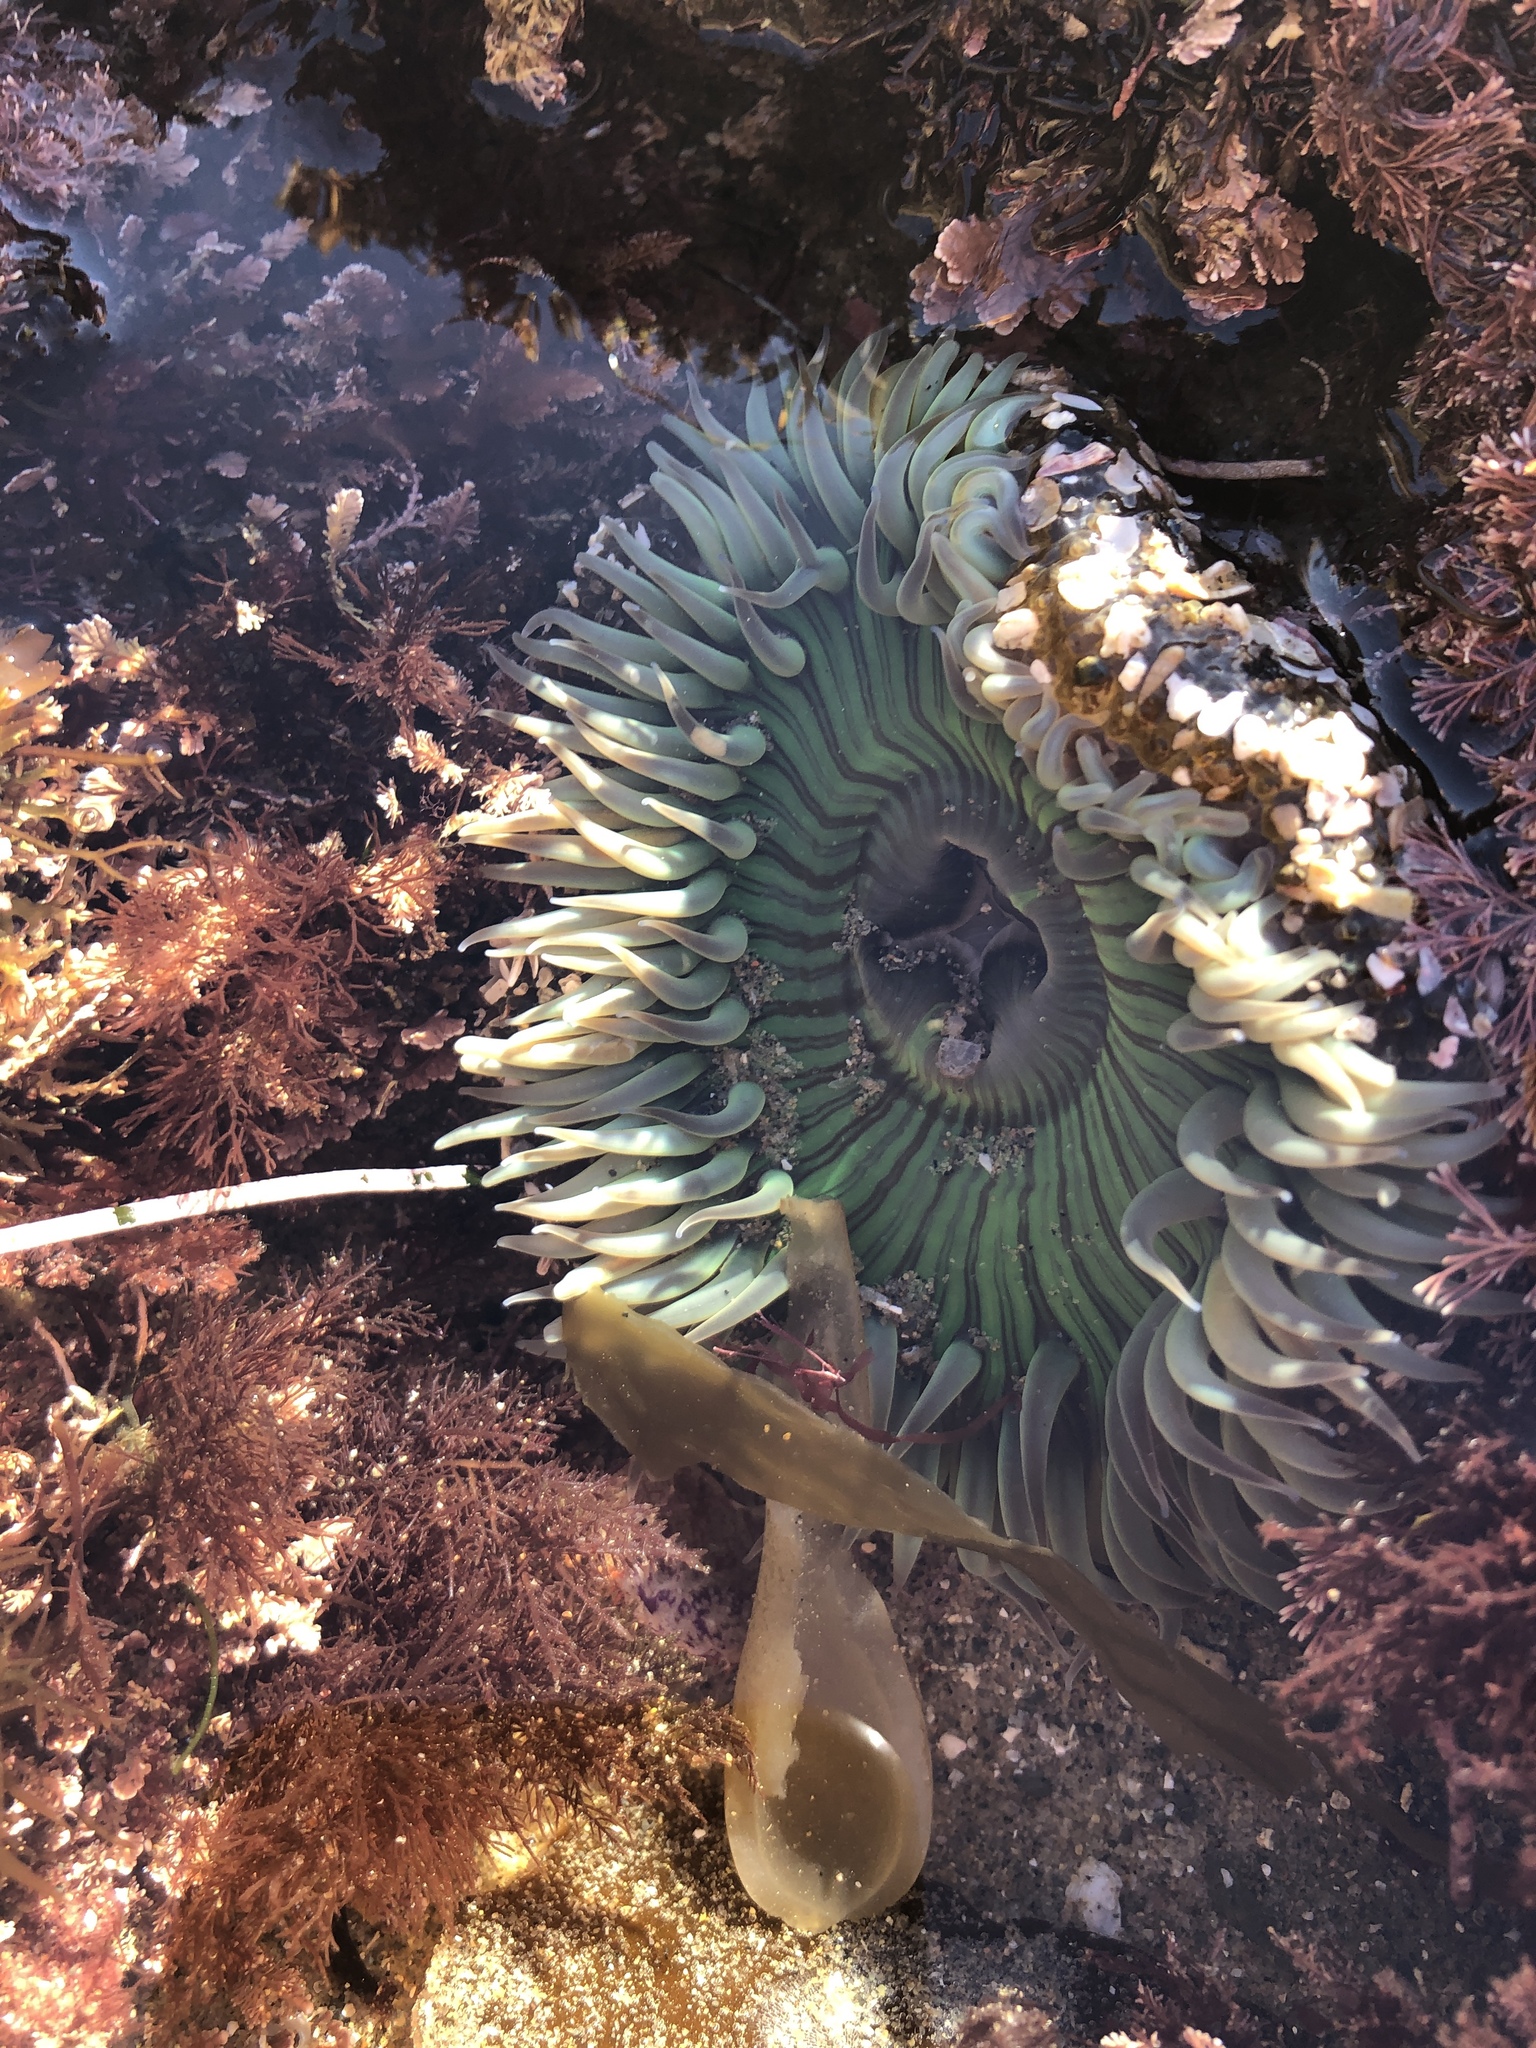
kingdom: Animalia
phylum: Cnidaria
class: Anthozoa
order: Actiniaria
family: Actiniidae
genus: Anthopleura
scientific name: Anthopleura sola
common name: Sun anemone
